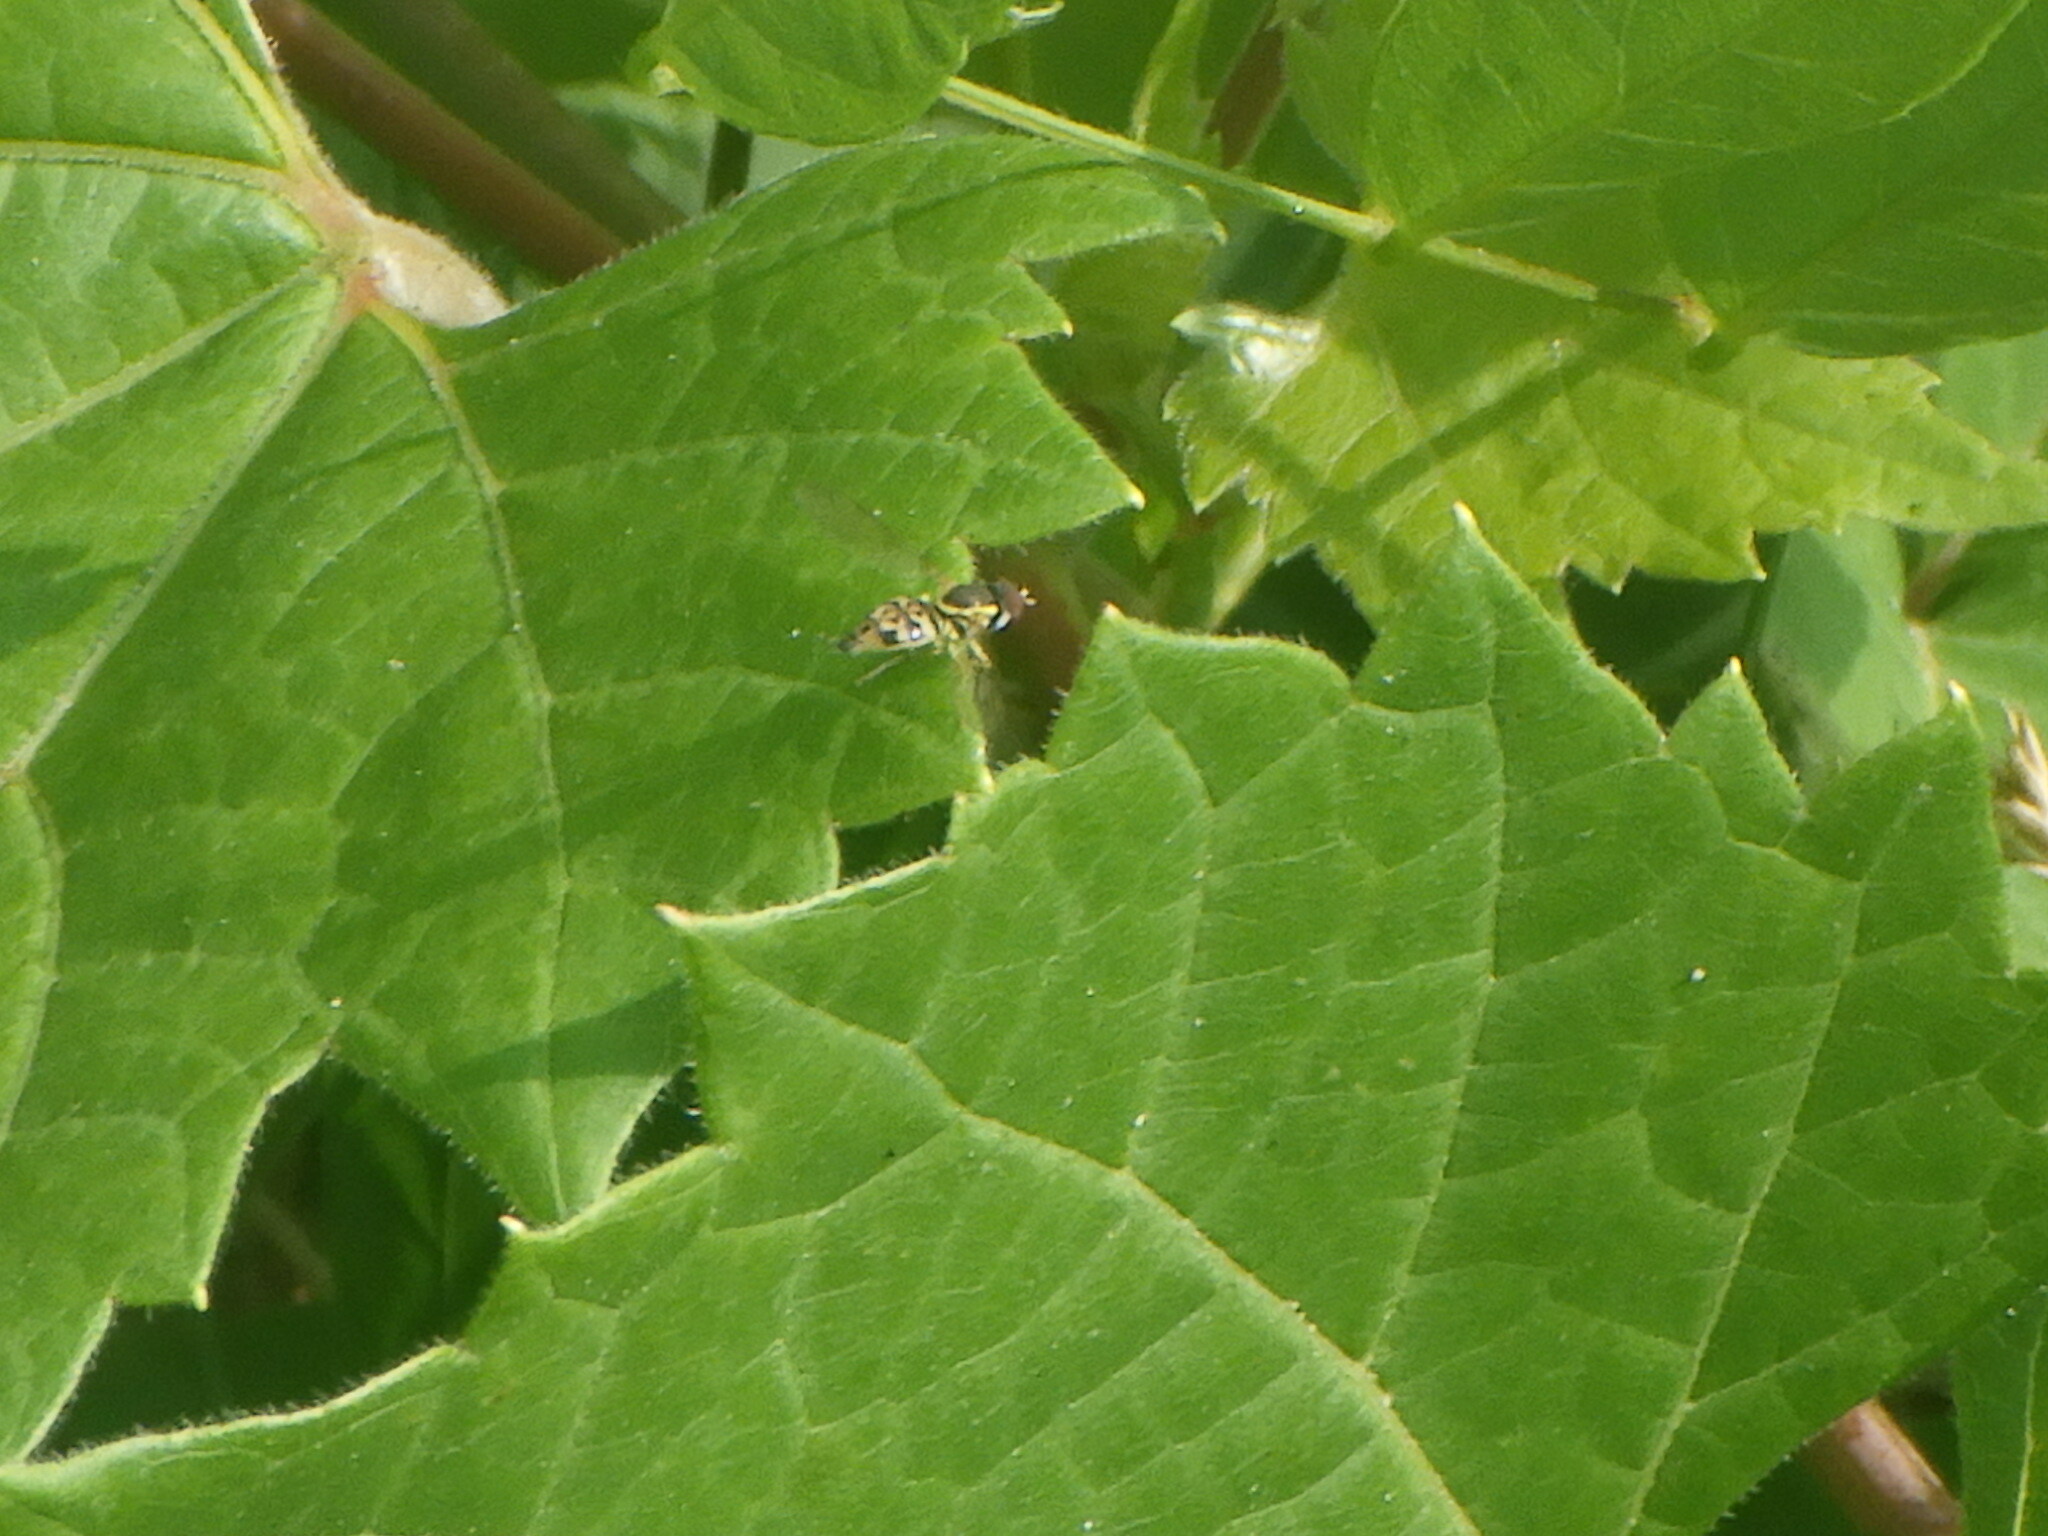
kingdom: Animalia
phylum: Arthropoda
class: Insecta
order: Diptera
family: Syrphidae
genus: Toxomerus
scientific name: Toxomerus geminatus
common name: Eastern calligrapher
